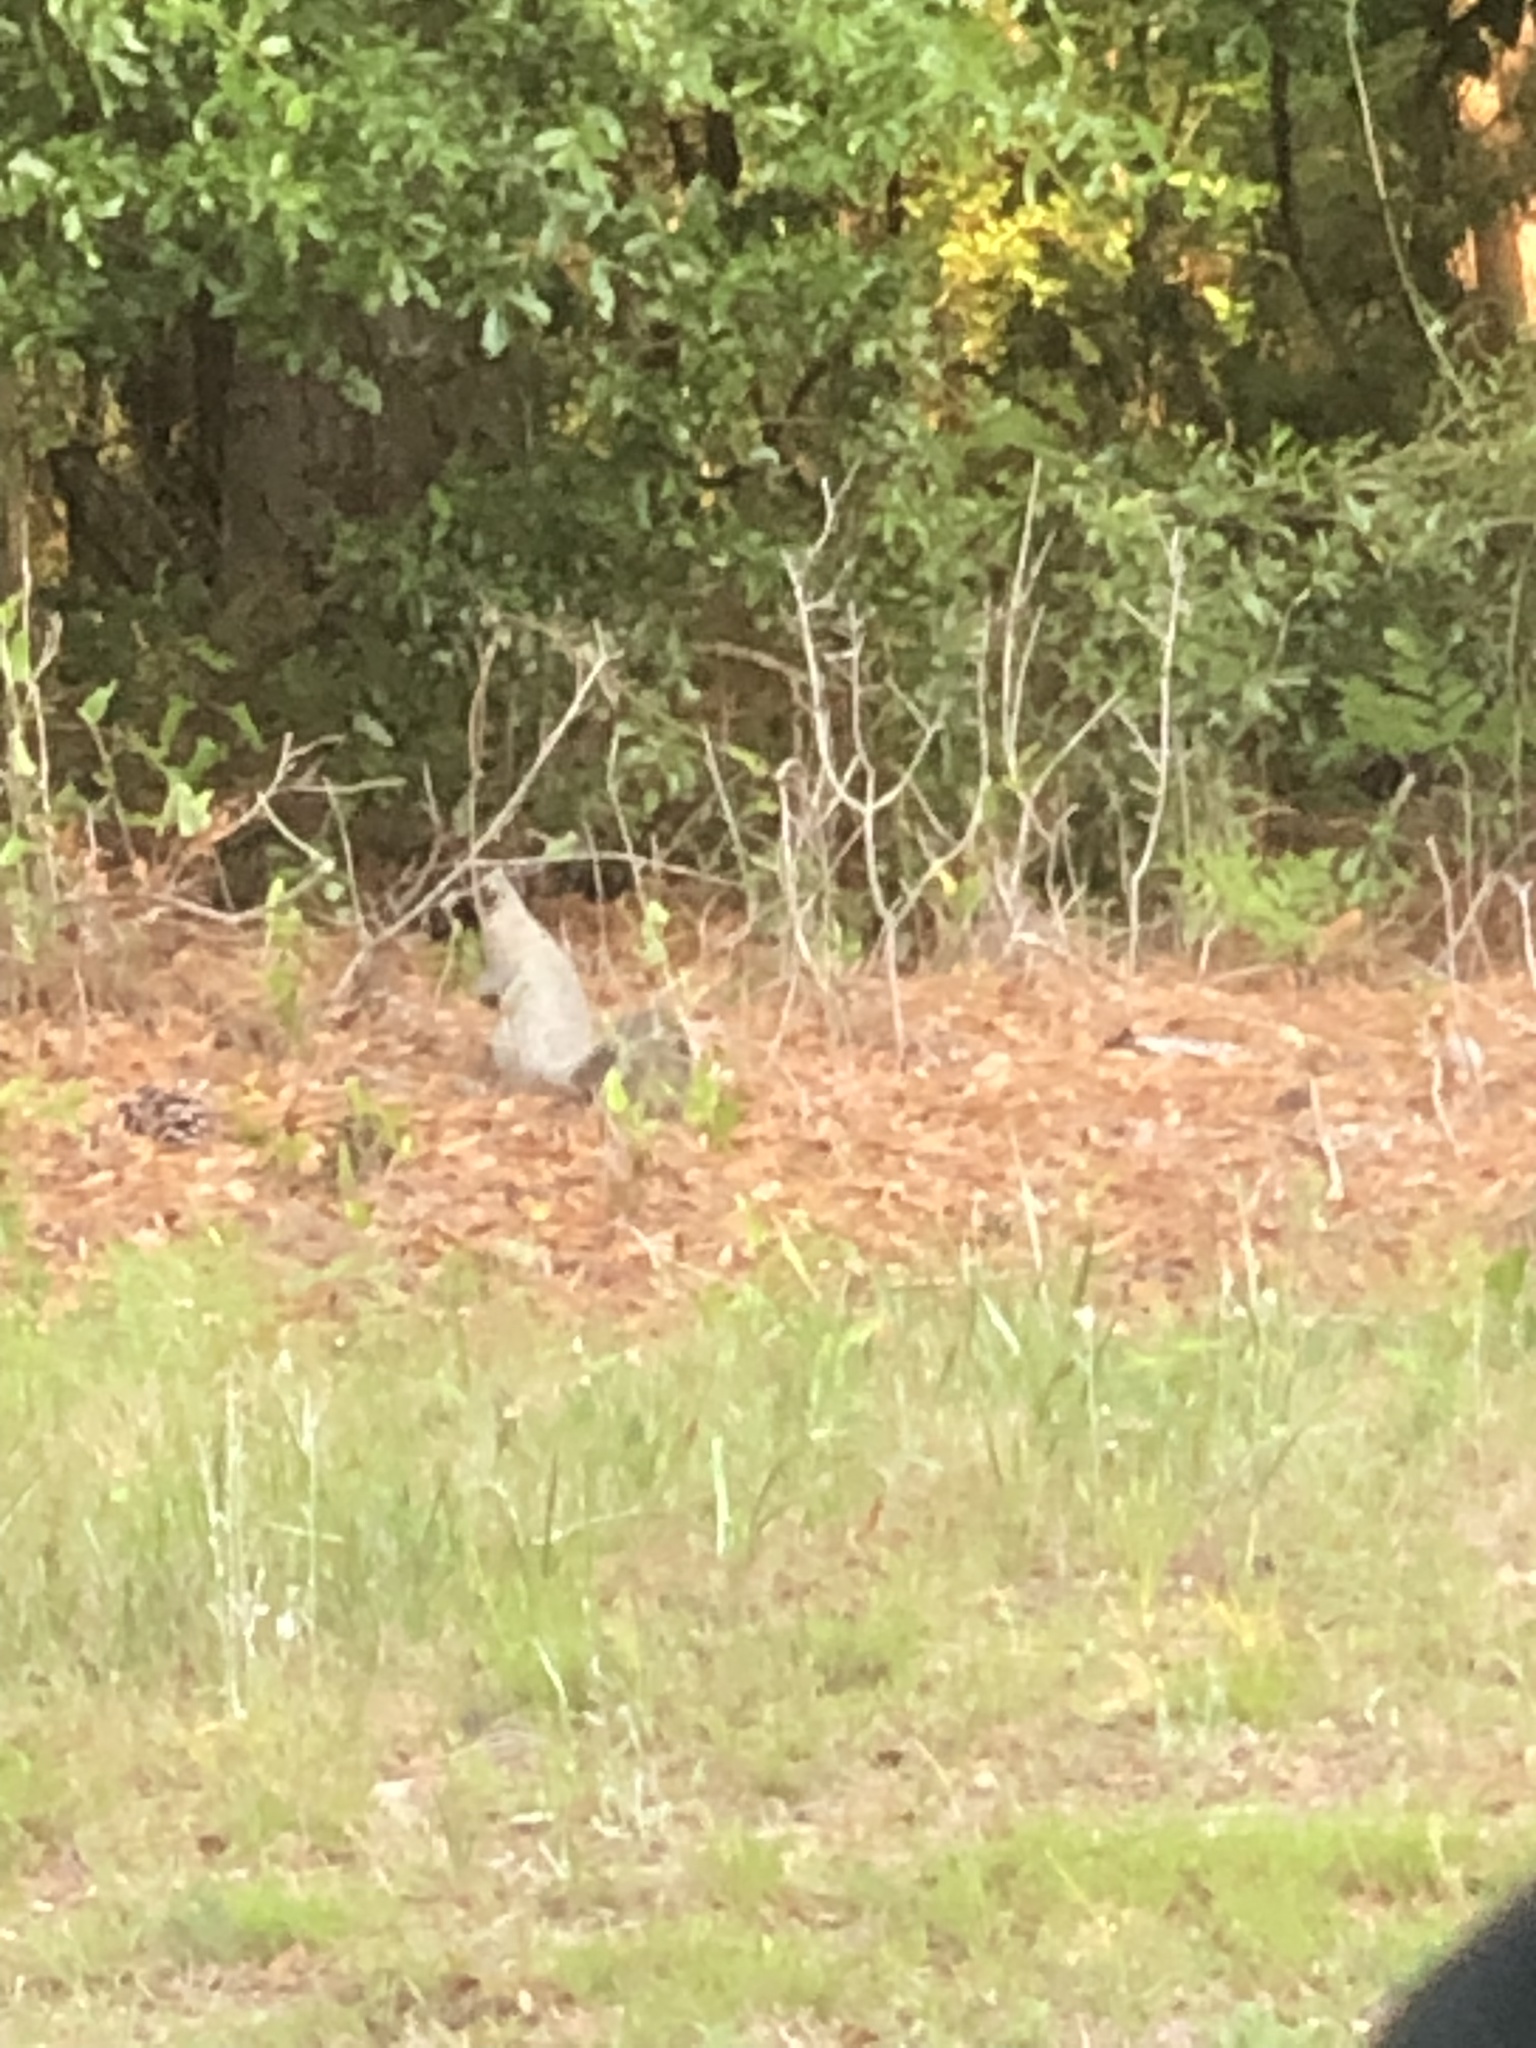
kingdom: Animalia
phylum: Chordata
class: Mammalia
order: Rodentia
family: Sciuridae
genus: Sciurus
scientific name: Sciurus niger
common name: Fox squirrel
